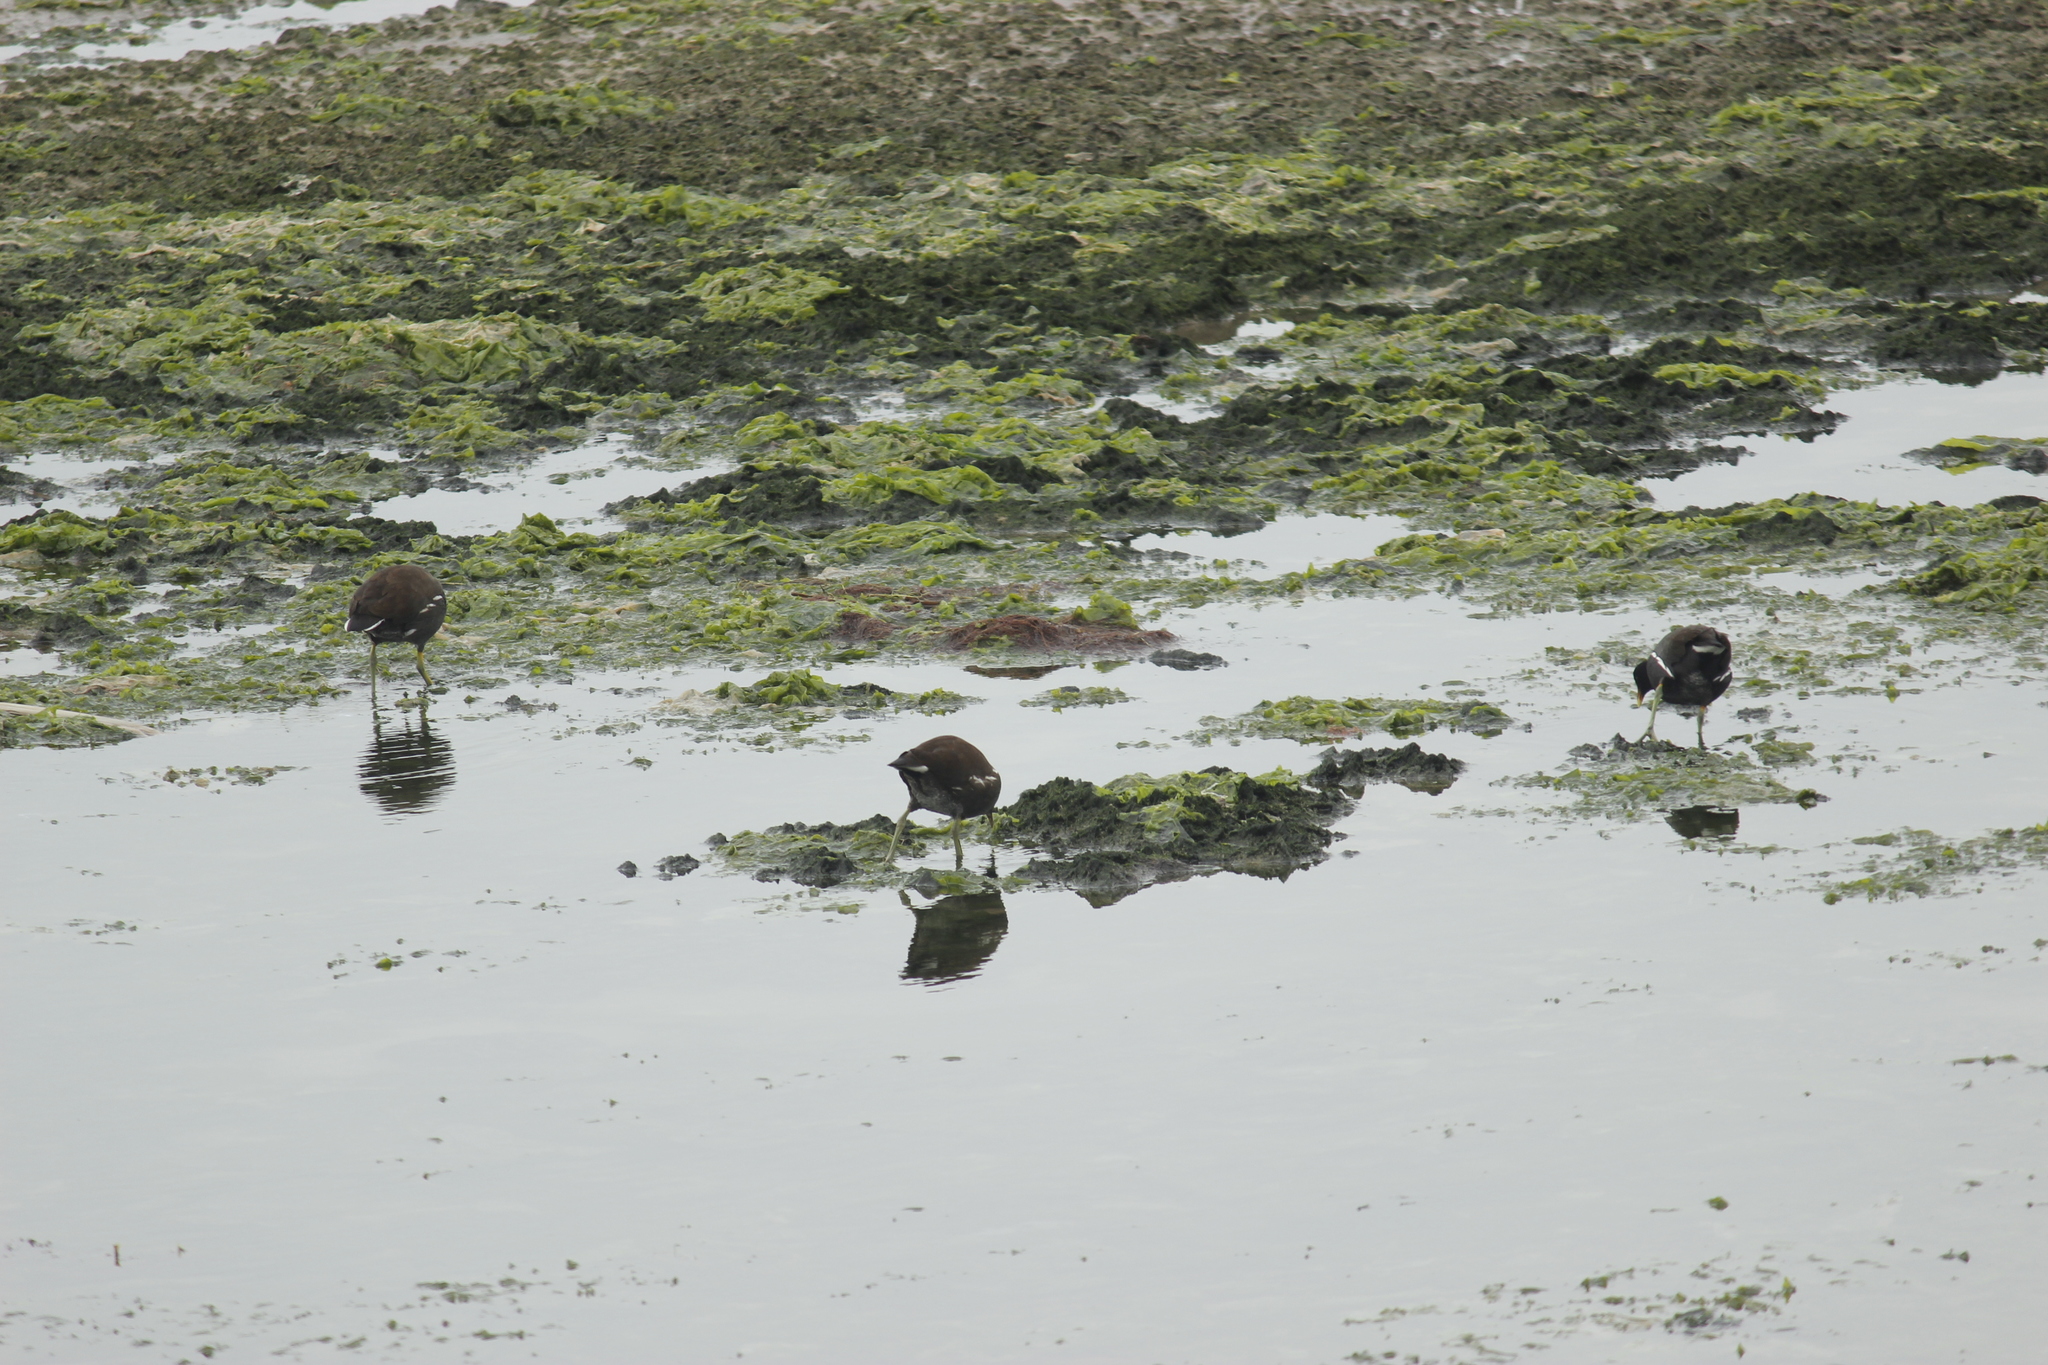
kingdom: Animalia
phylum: Chordata
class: Aves
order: Gruiformes
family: Rallidae
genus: Gallinula
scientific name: Gallinula chloropus
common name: Common moorhen
